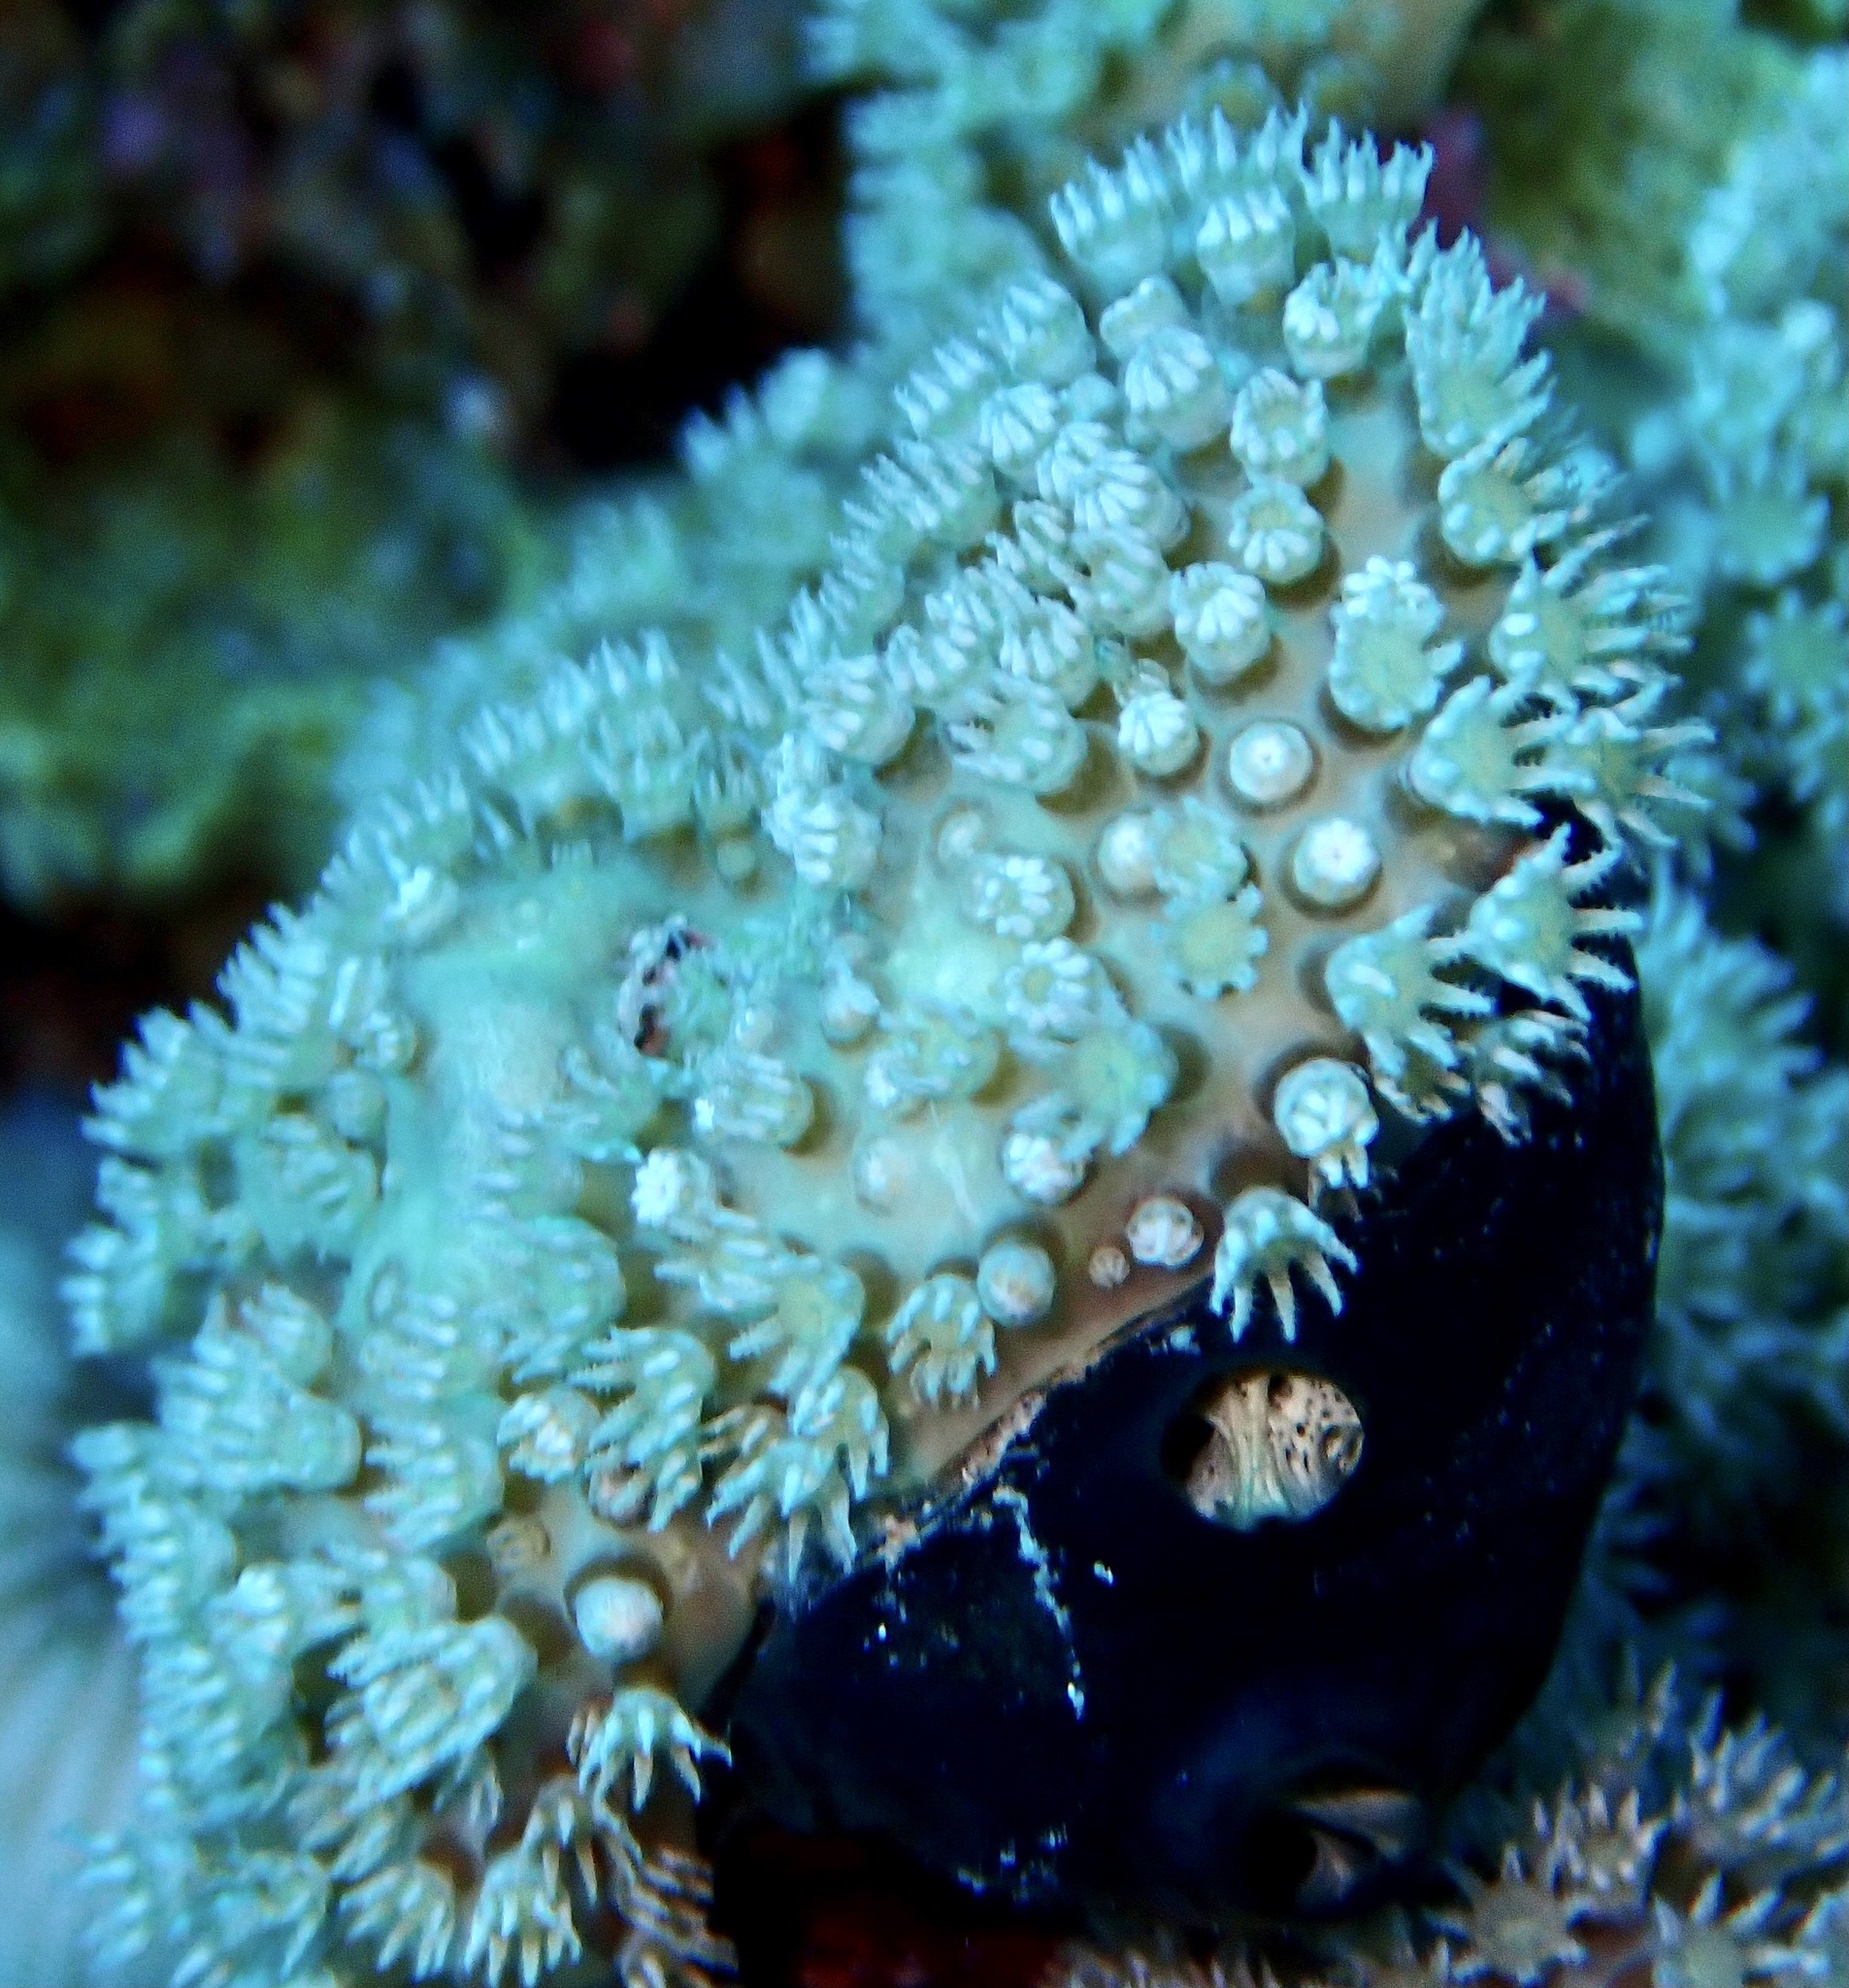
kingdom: Animalia
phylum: Cnidaria
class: Anthozoa
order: Malacalcyonacea
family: Lemnaliadae
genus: Rhytisma
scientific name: Rhytisma fulvum
